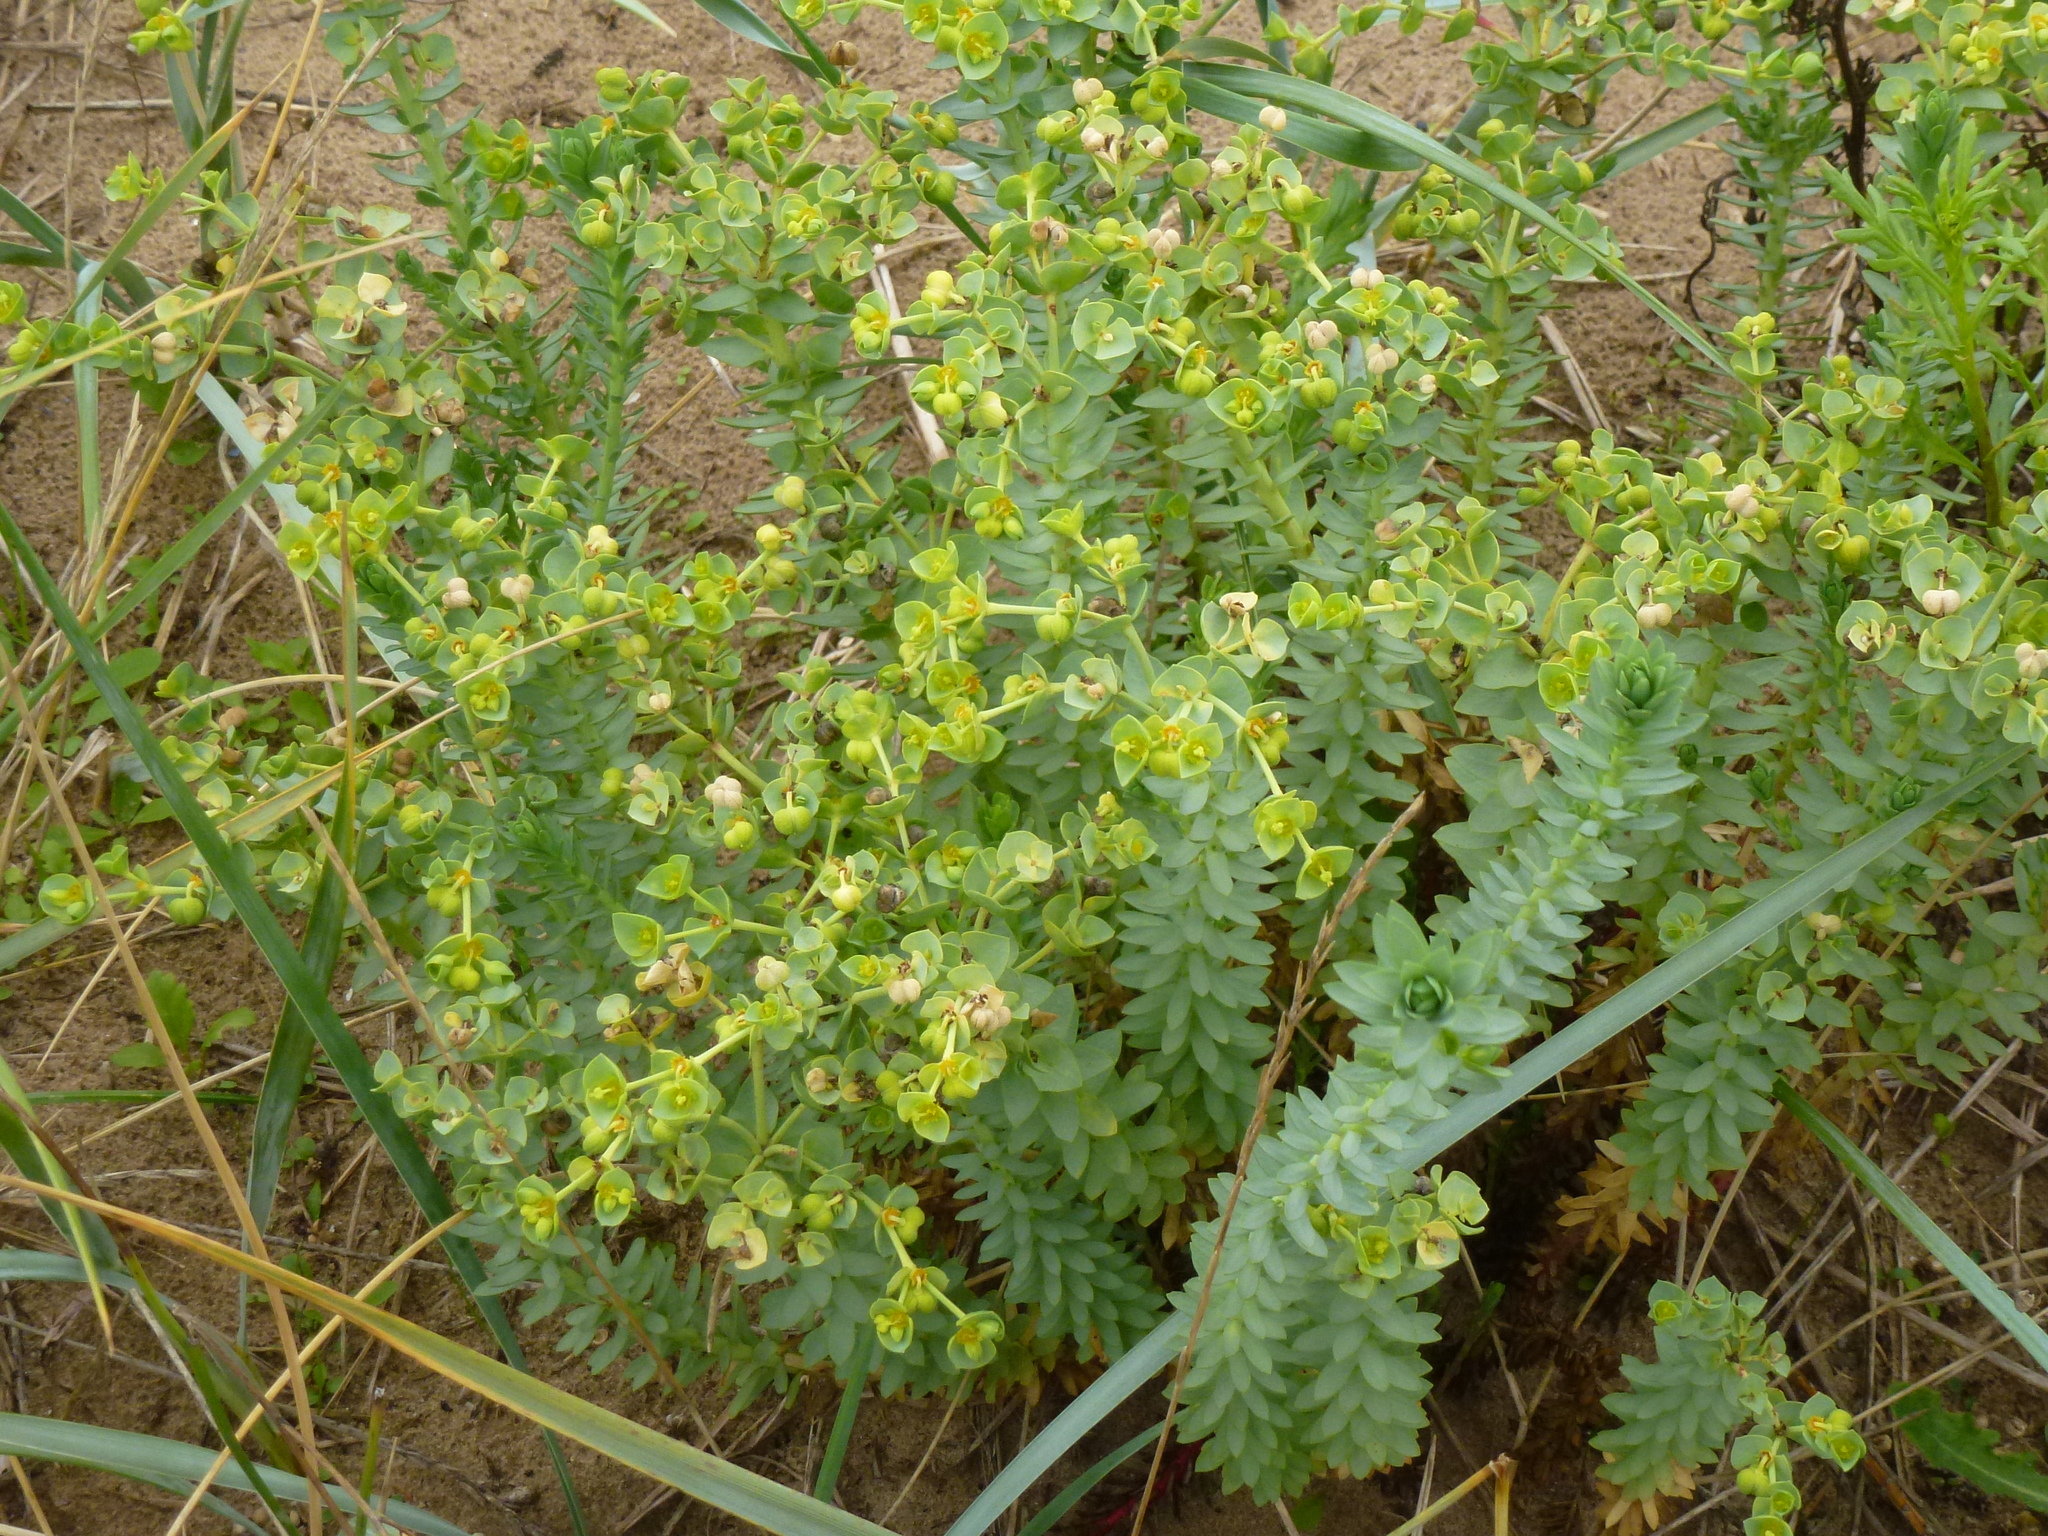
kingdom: Plantae
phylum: Tracheophyta
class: Magnoliopsida
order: Malpighiales
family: Euphorbiaceae
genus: Euphorbia
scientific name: Euphorbia paralias
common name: Sea spurge
